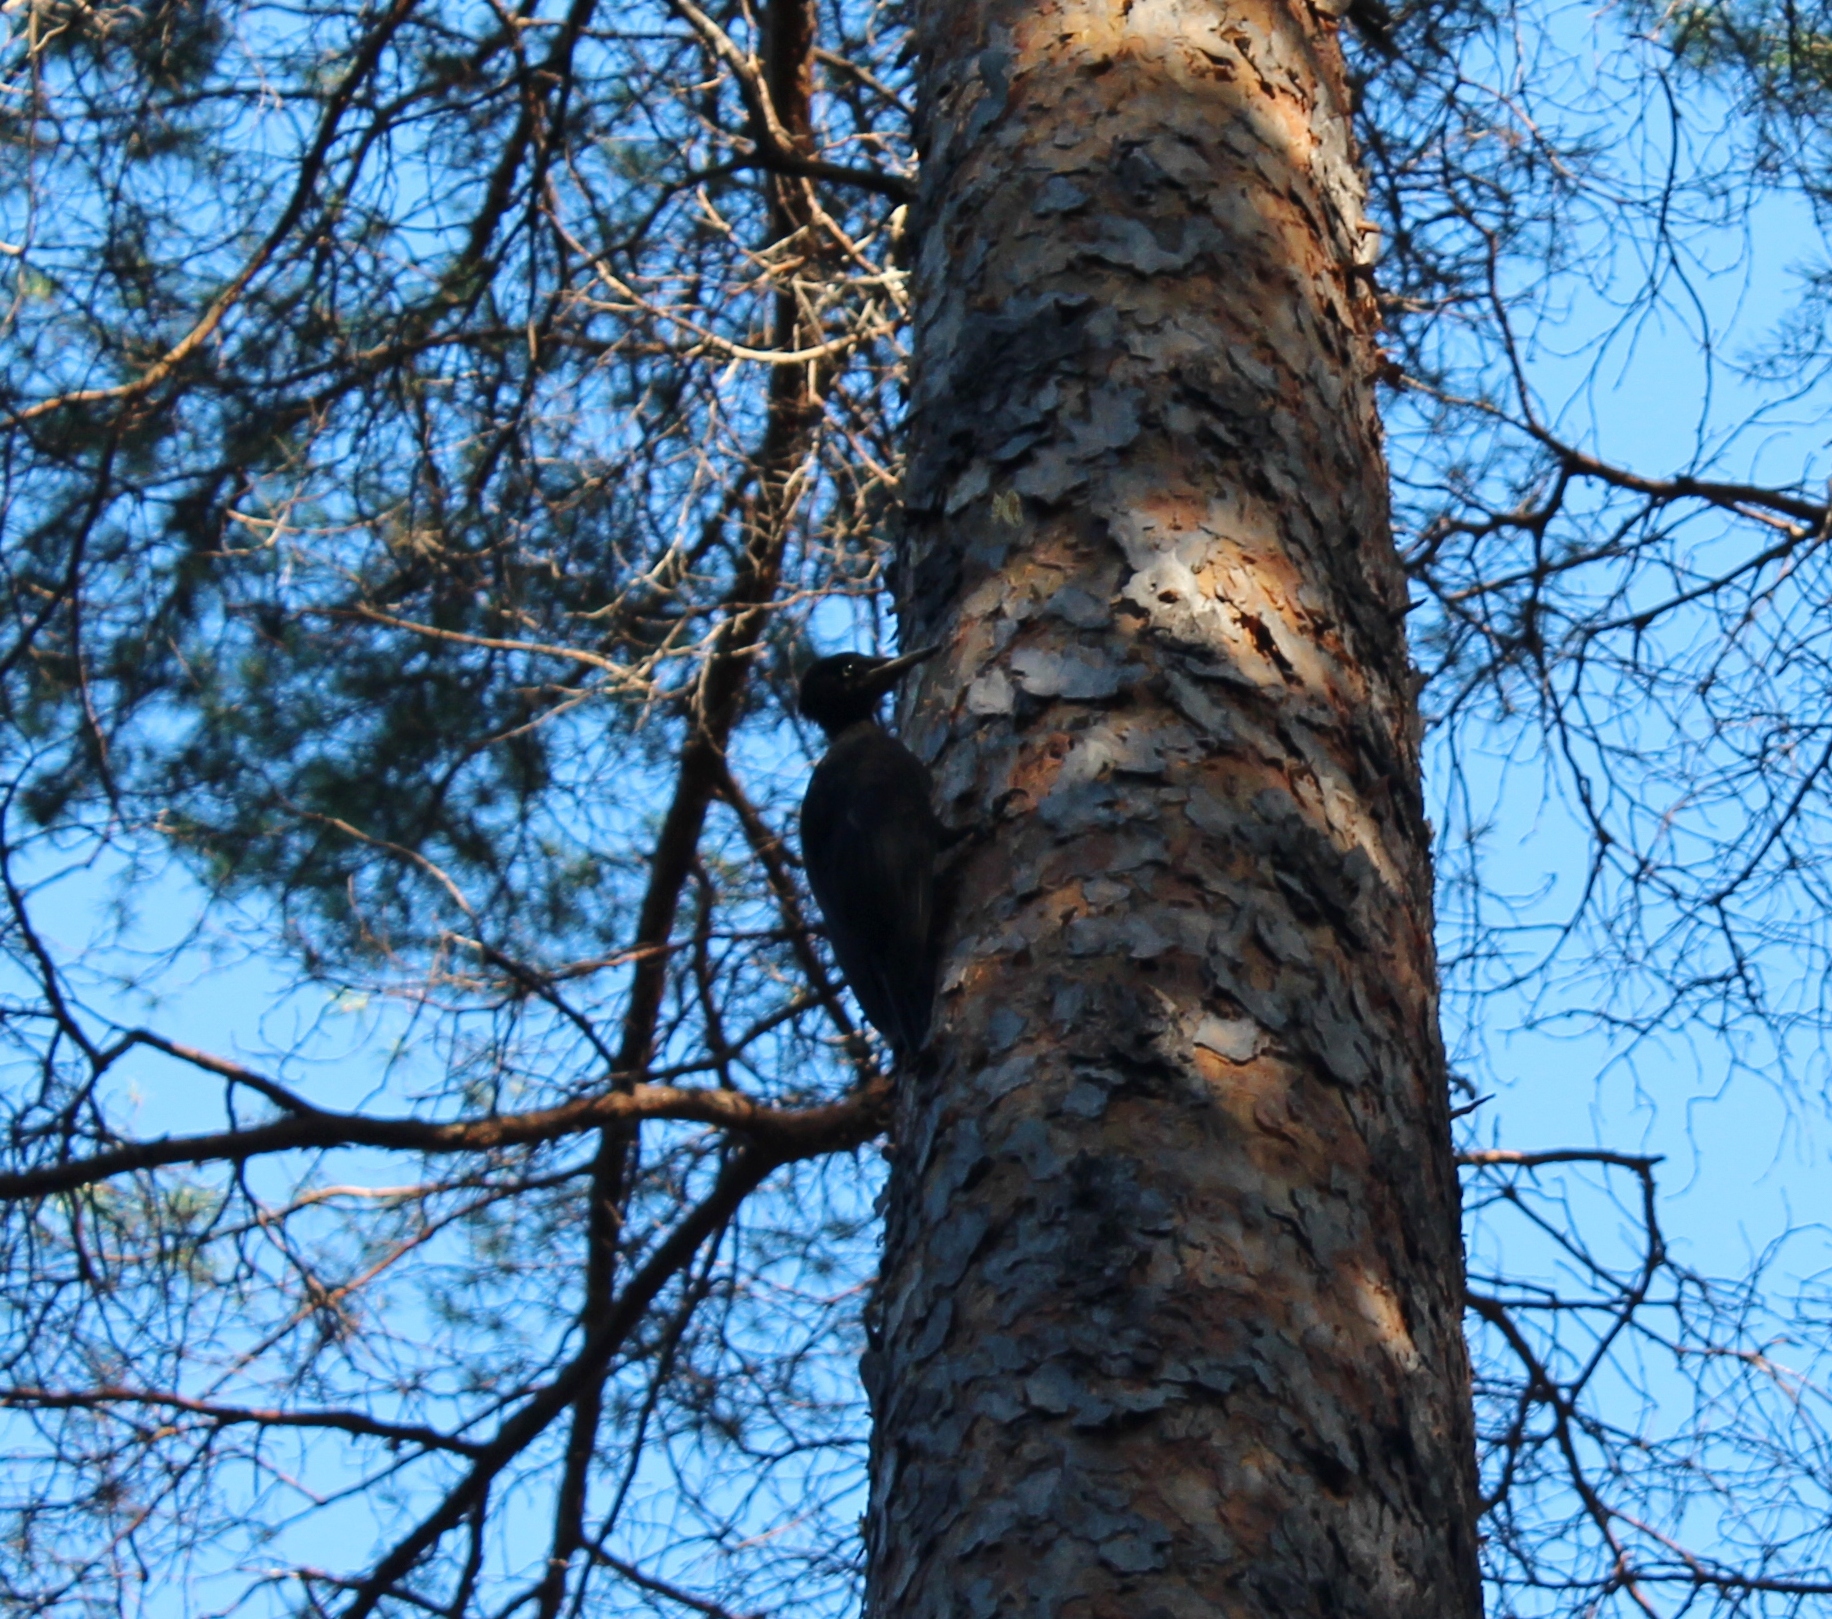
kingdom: Animalia
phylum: Chordata
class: Aves
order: Piciformes
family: Picidae
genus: Dryocopus
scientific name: Dryocopus martius
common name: Black woodpecker
